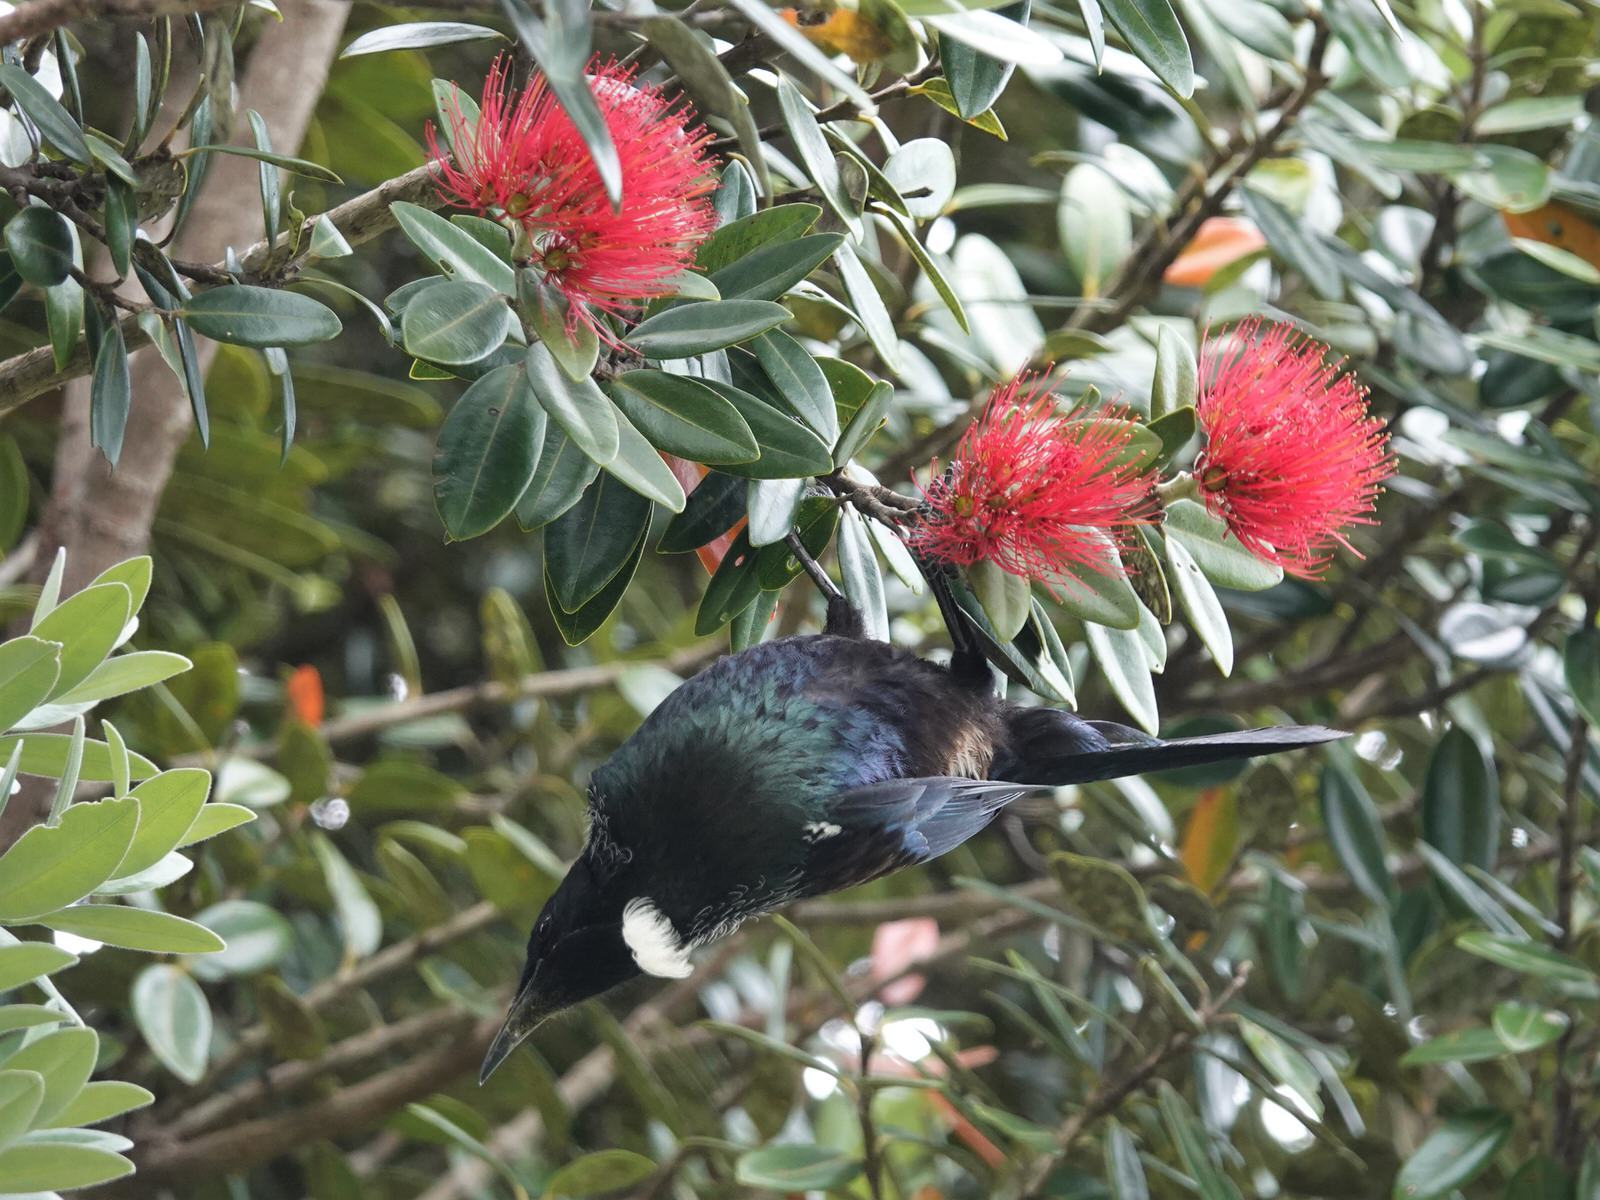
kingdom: Animalia
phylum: Chordata
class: Aves
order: Passeriformes
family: Meliphagidae
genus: Prosthemadera
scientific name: Prosthemadera novaeseelandiae
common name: Tui
